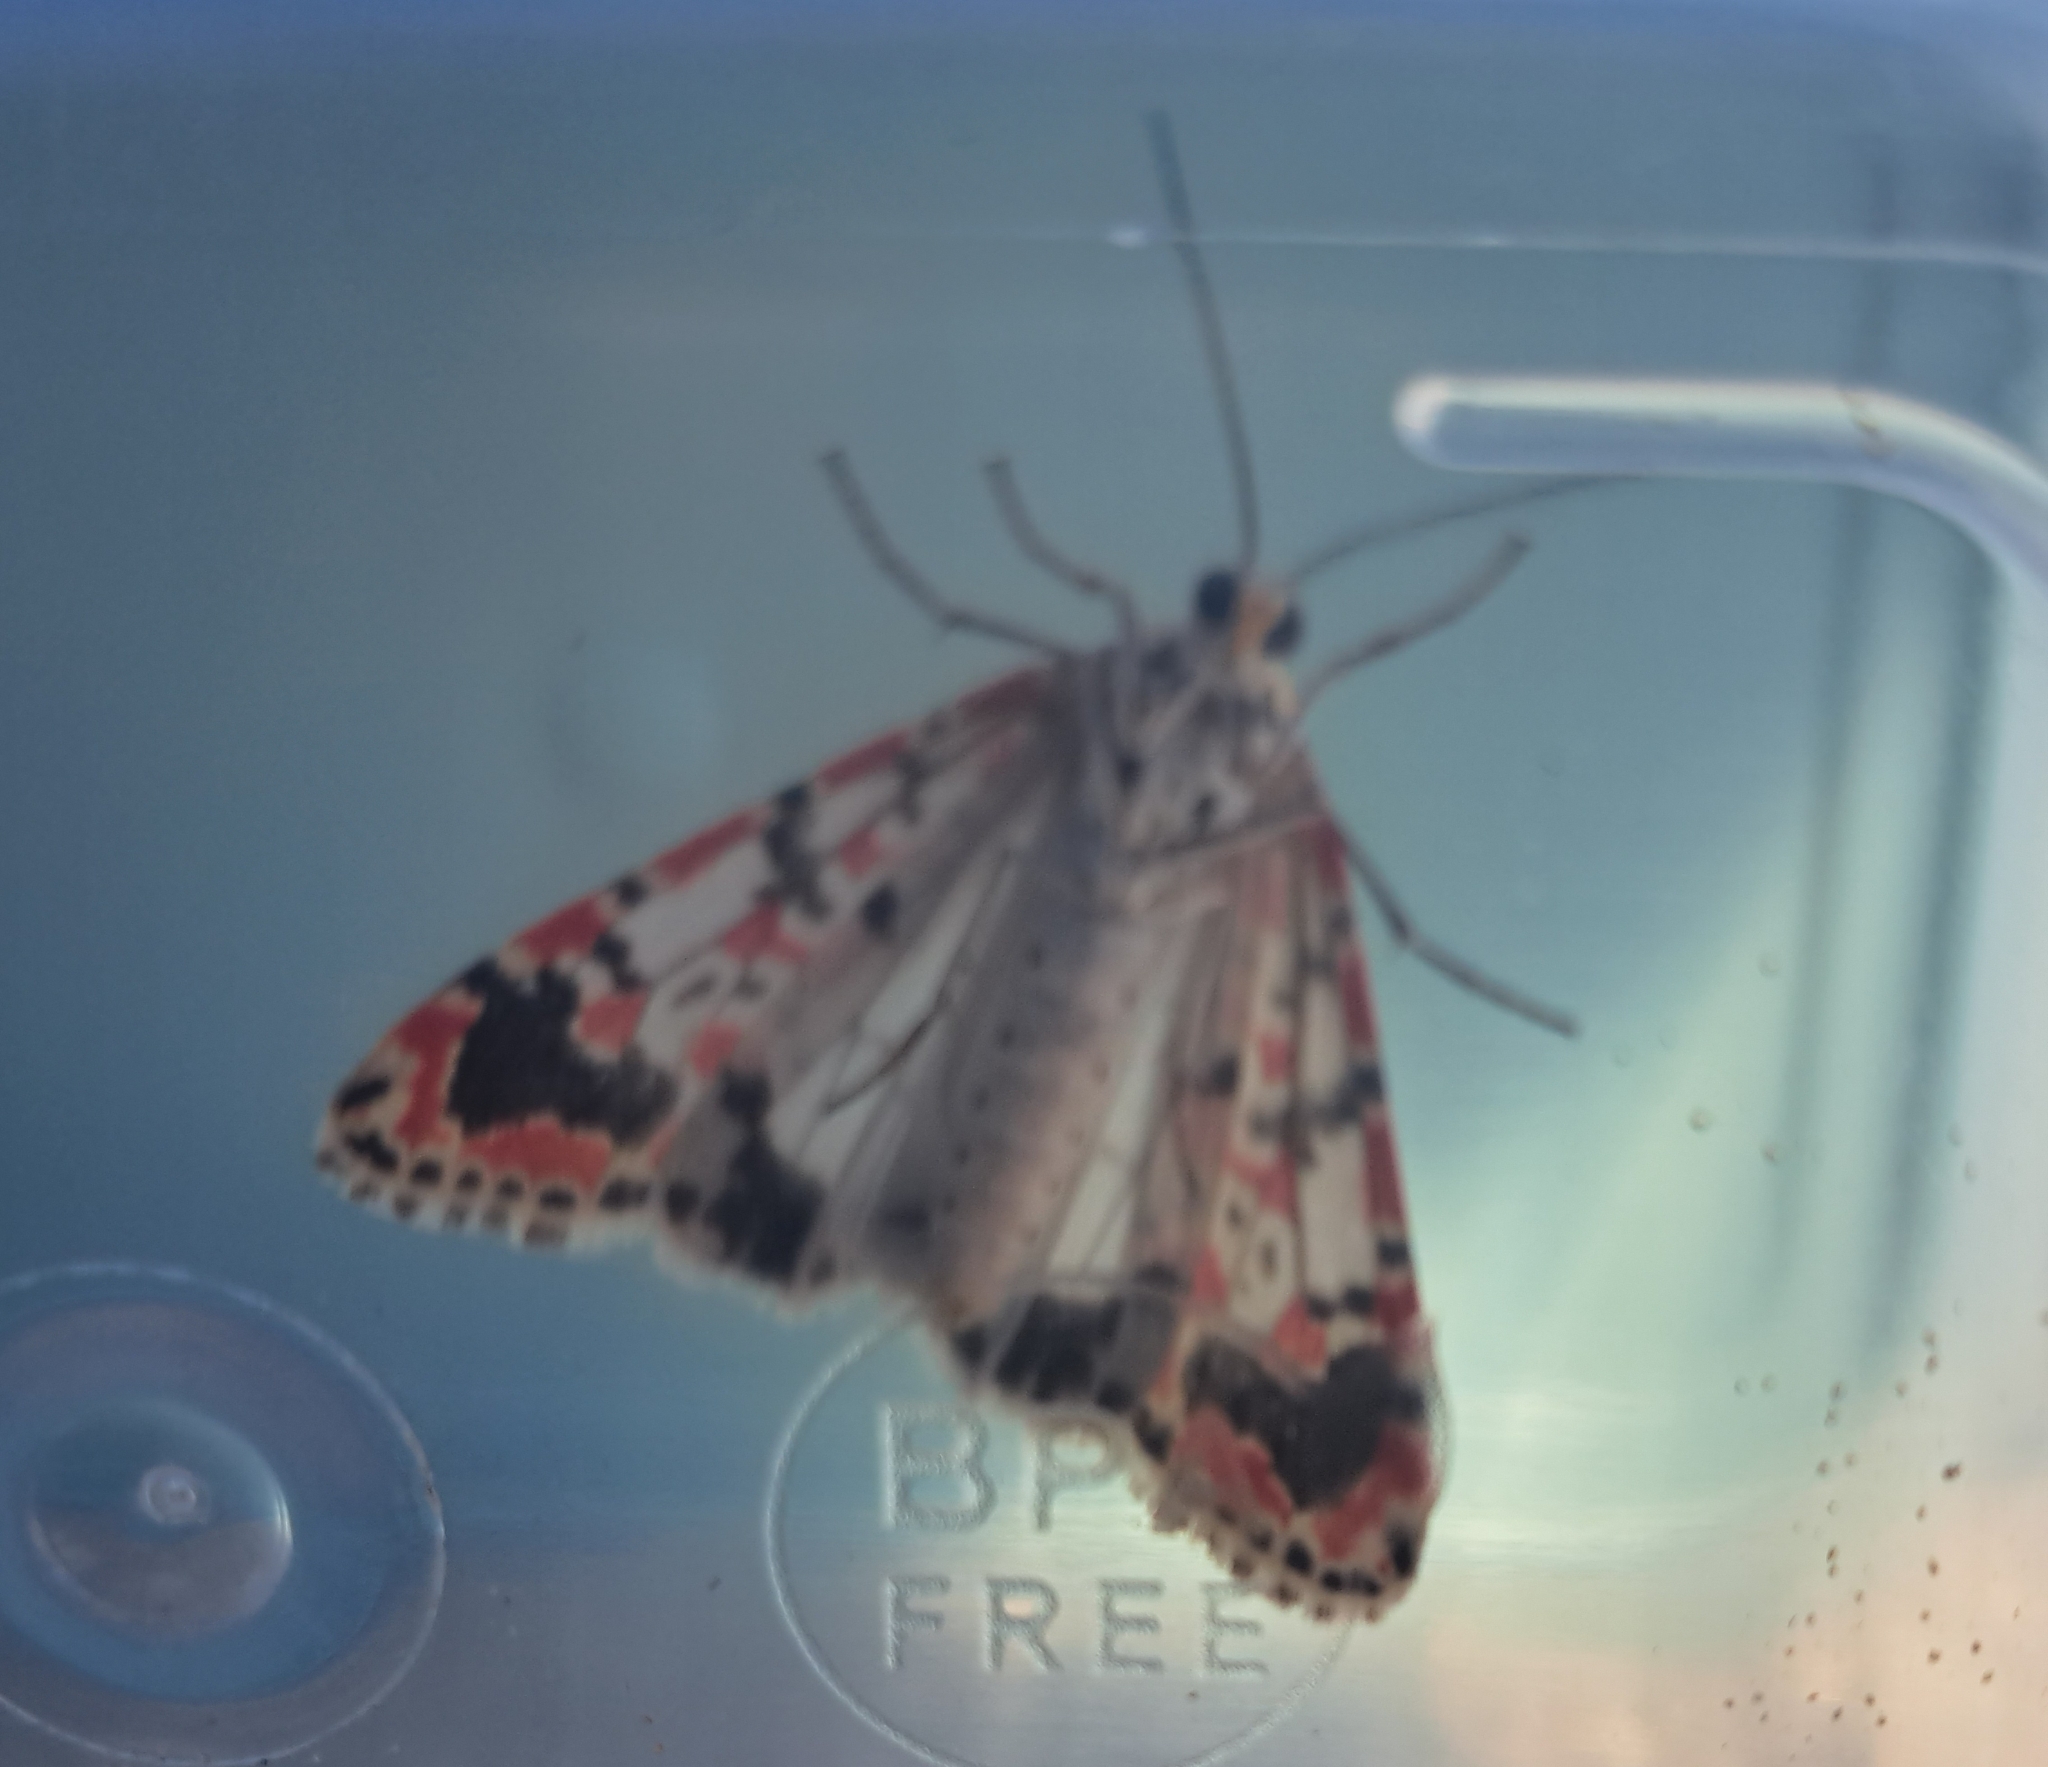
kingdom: Animalia
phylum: Arthropoda
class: Insecta
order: Lepidoptera
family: Erebidae
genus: Utetheisa
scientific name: Utetheisa pulchella
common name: Crimson speckled
